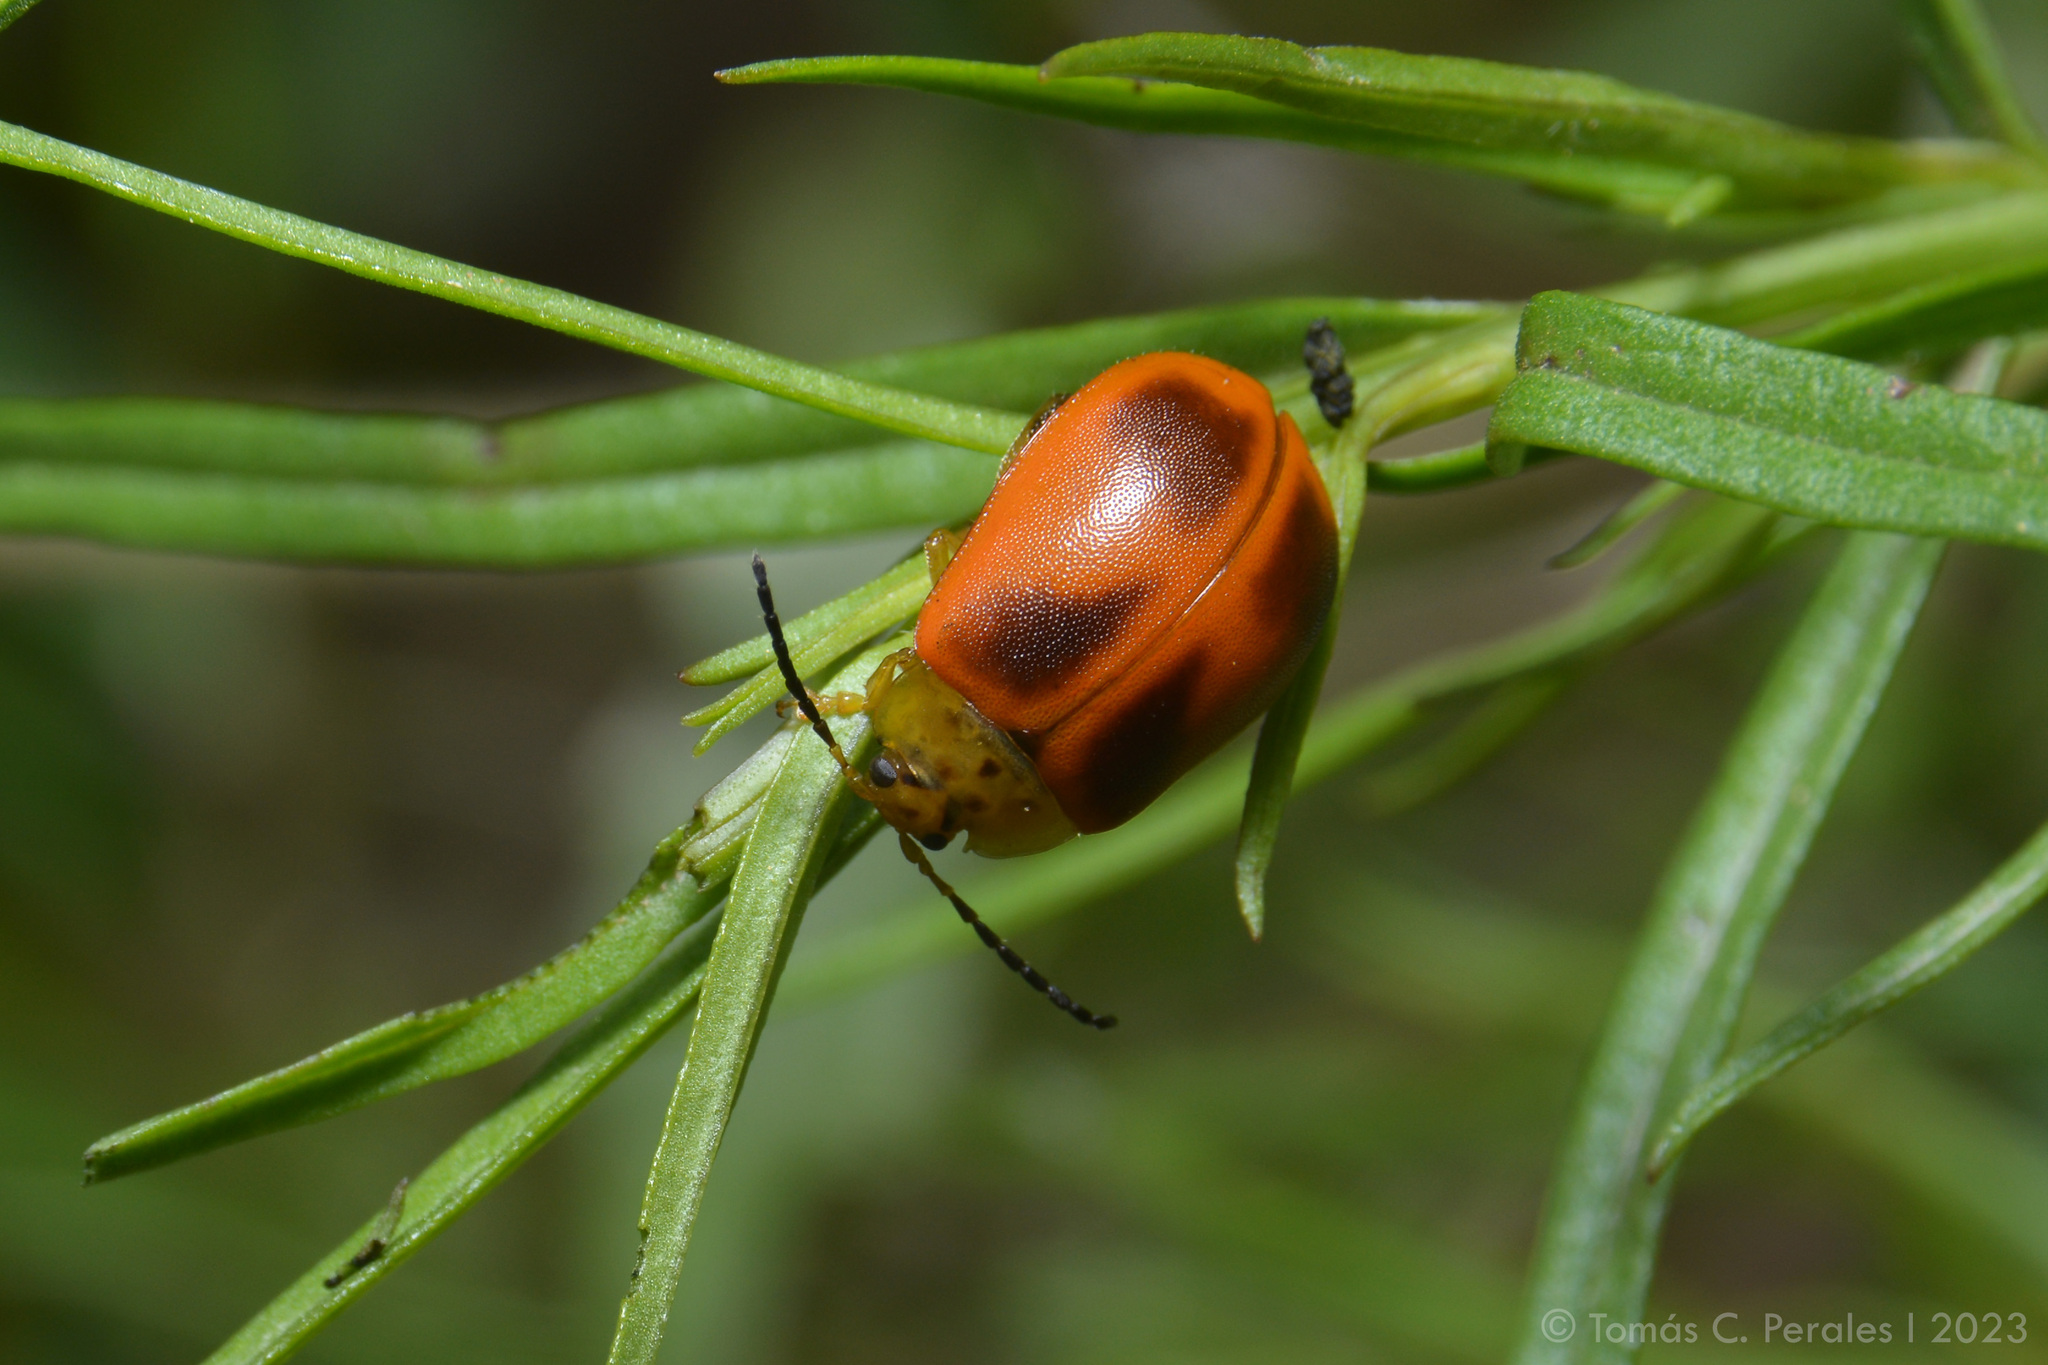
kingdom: Animalia
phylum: Arthropoda
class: Insecta
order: Coleoptera
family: Chrysomelidae
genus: Paranaita
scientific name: Paranaita
